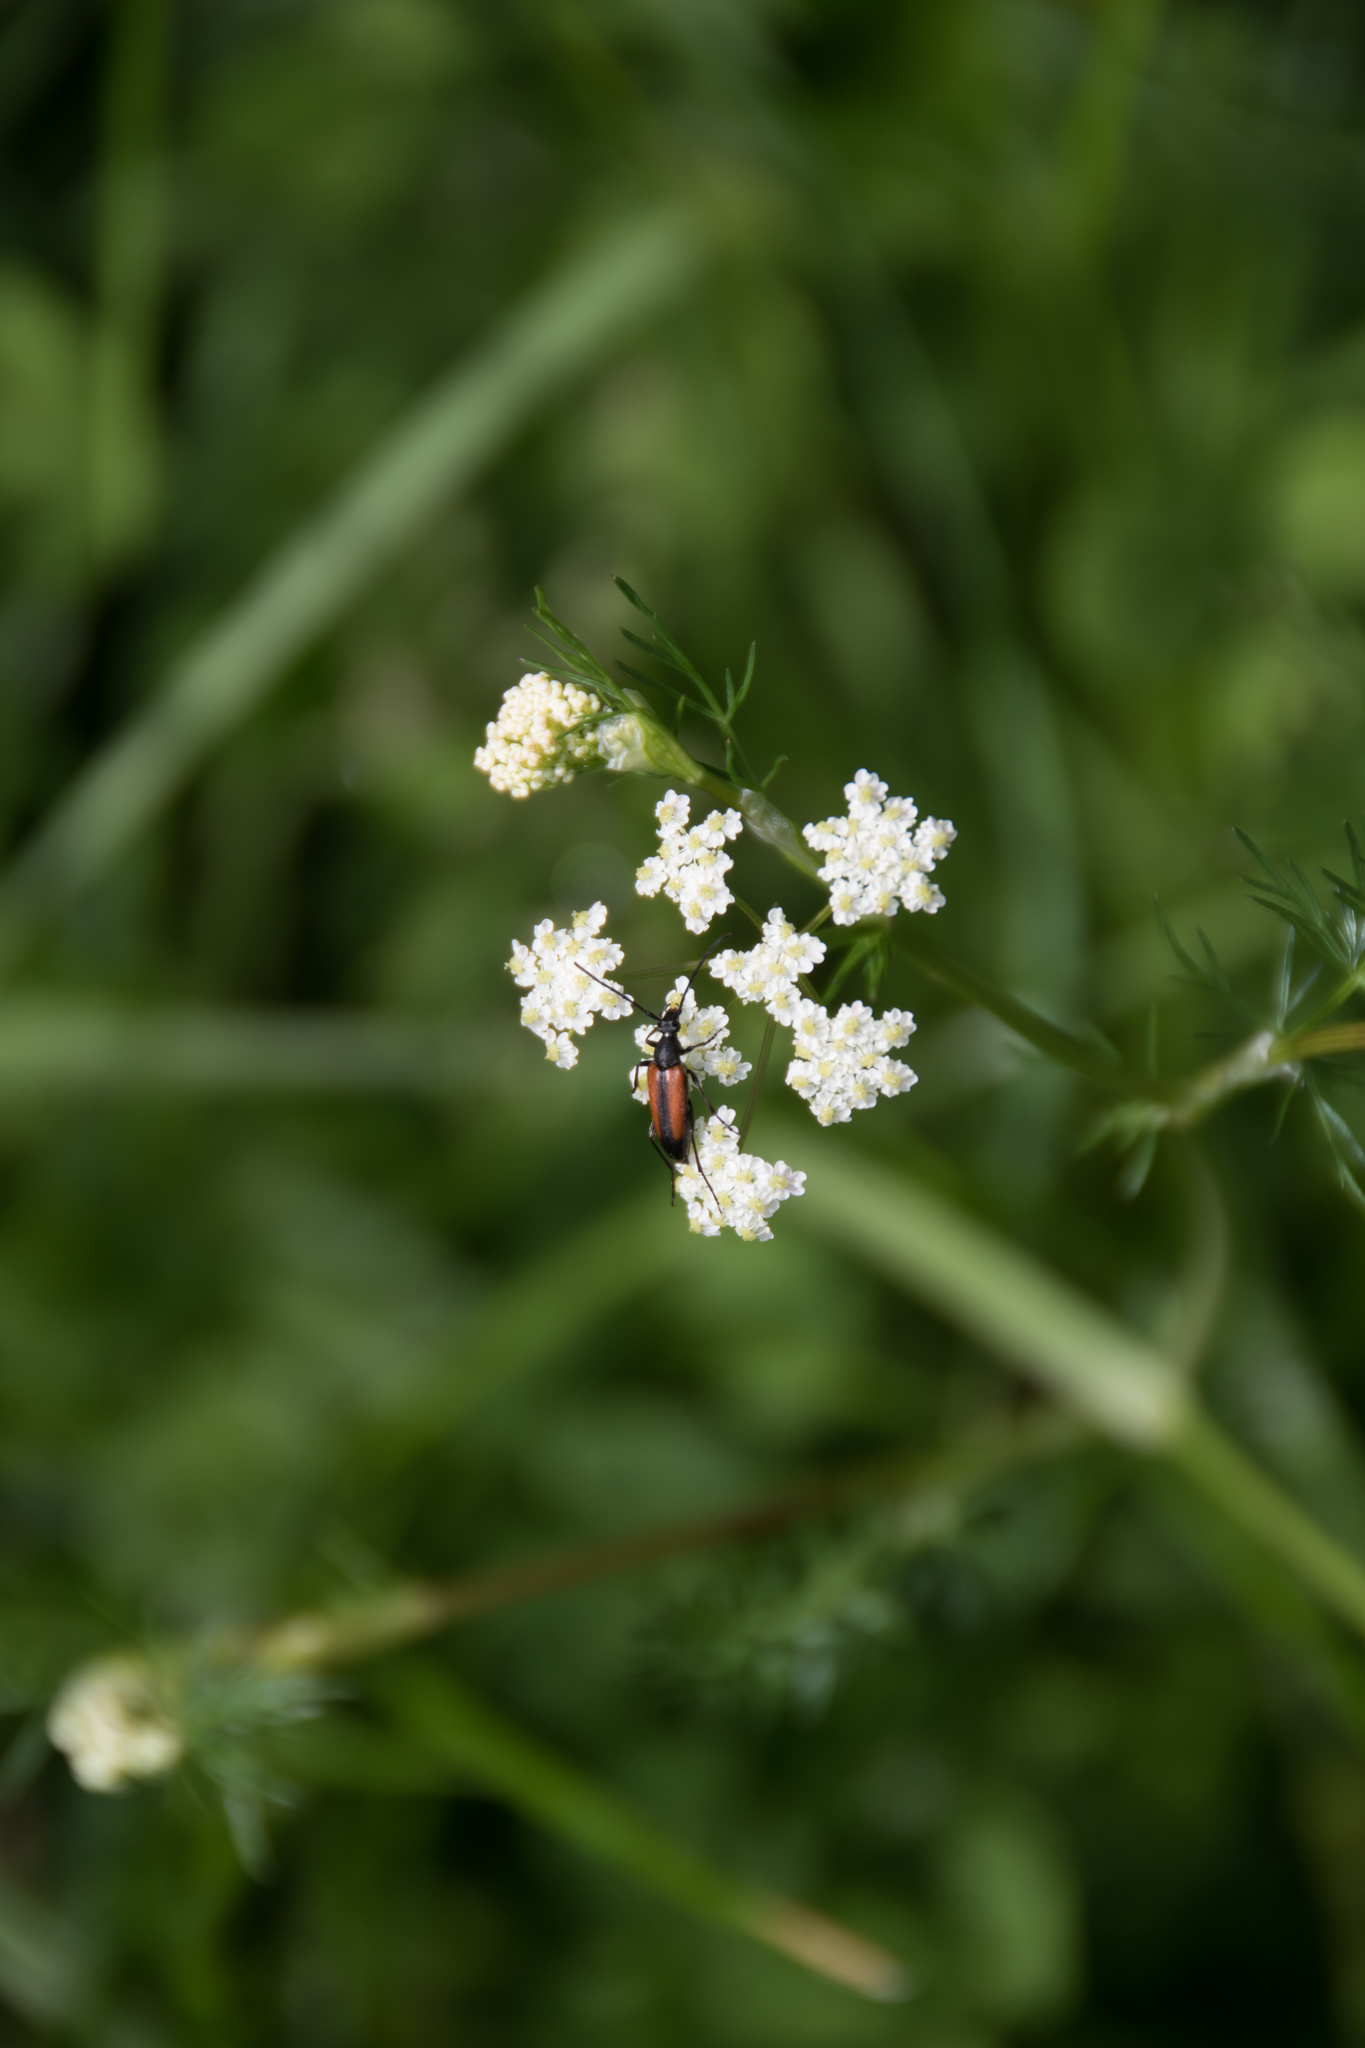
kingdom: Animalia
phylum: Arthropoda
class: Insecta
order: Coleoptera
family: Cerambycidae
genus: Stenurella
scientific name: Stenurella melanura
